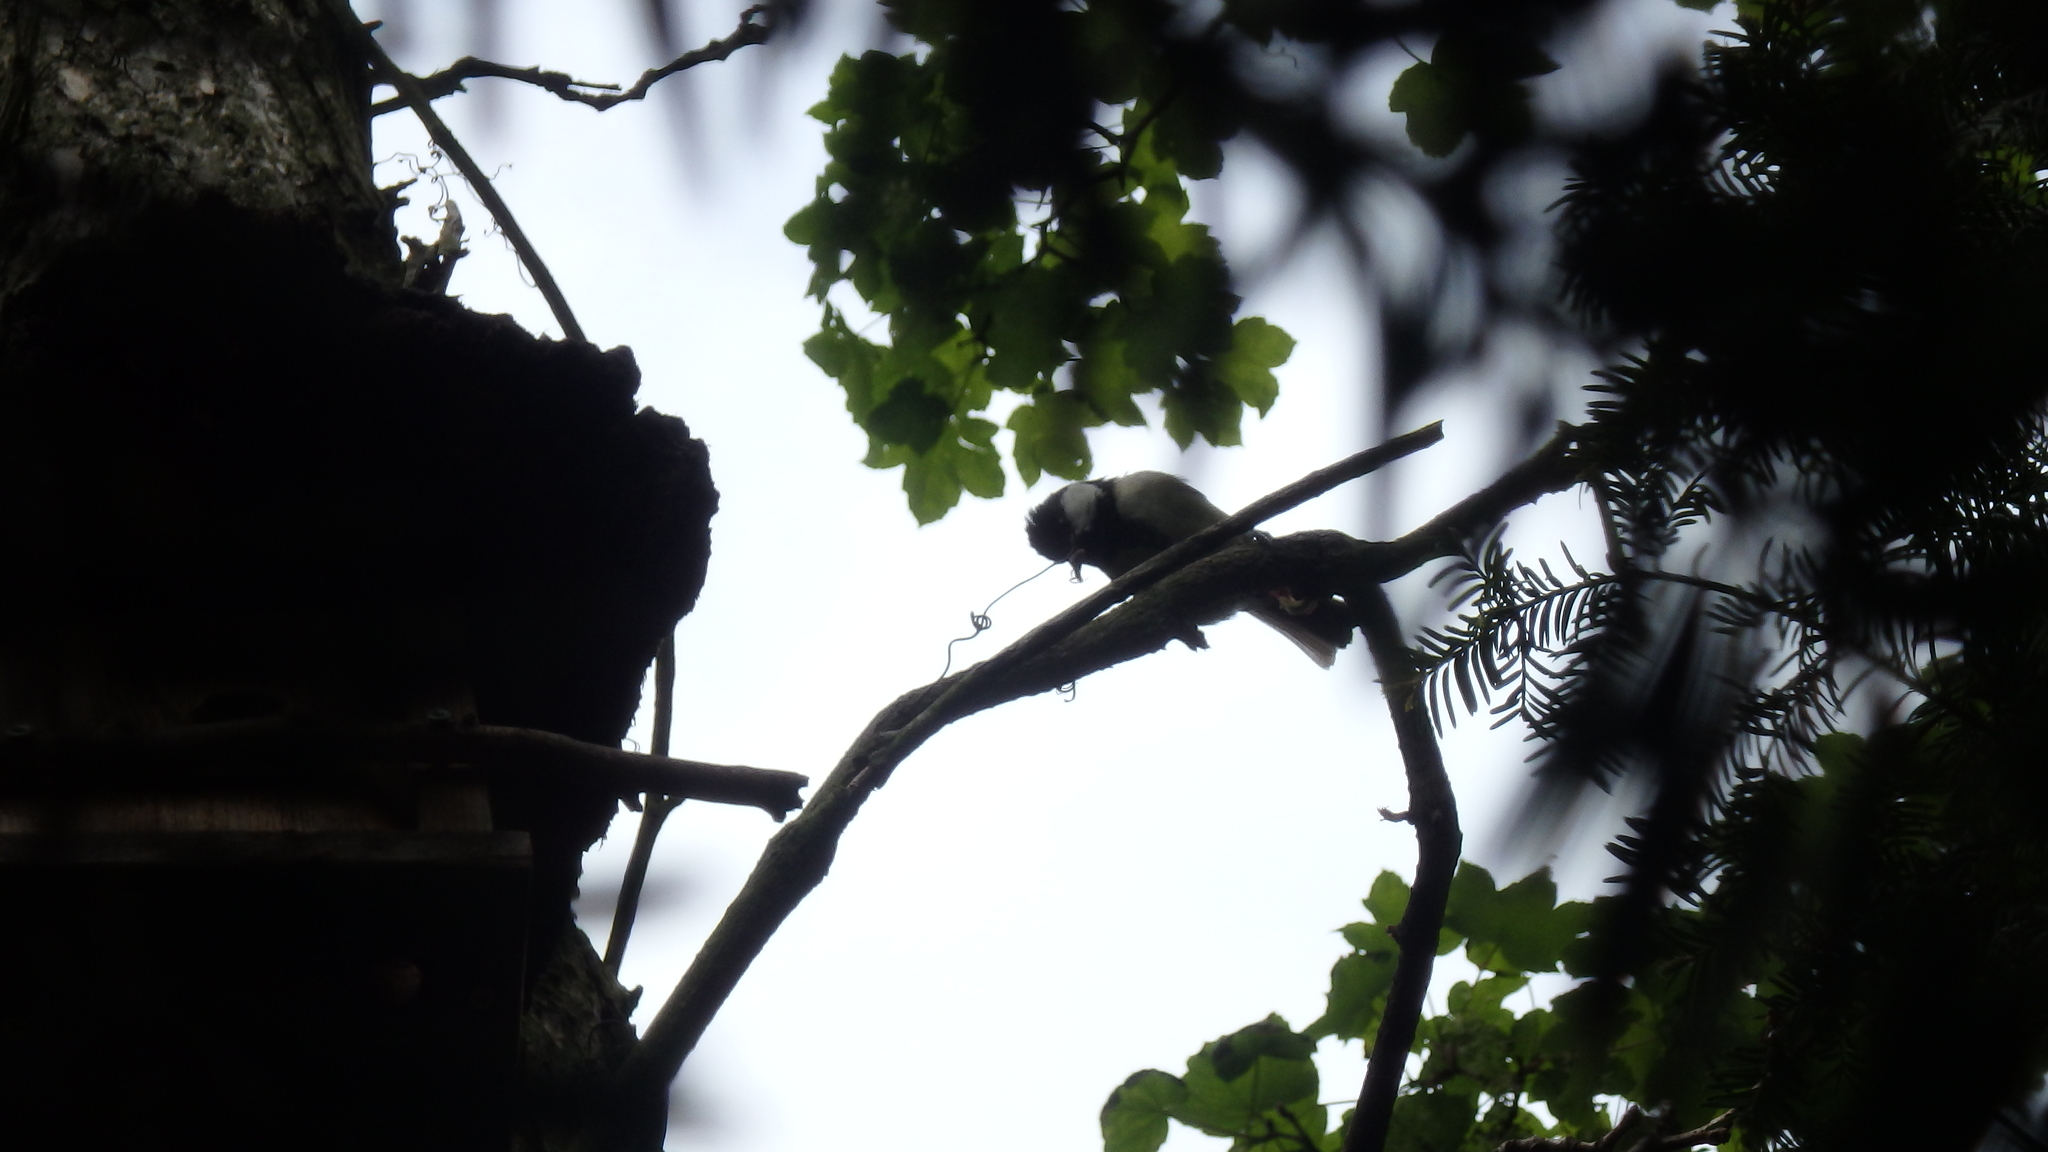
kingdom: Animalia
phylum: Chordata
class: Aves
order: Passeriformes
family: Paridae
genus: Parus
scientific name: Parus major
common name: Great tit
